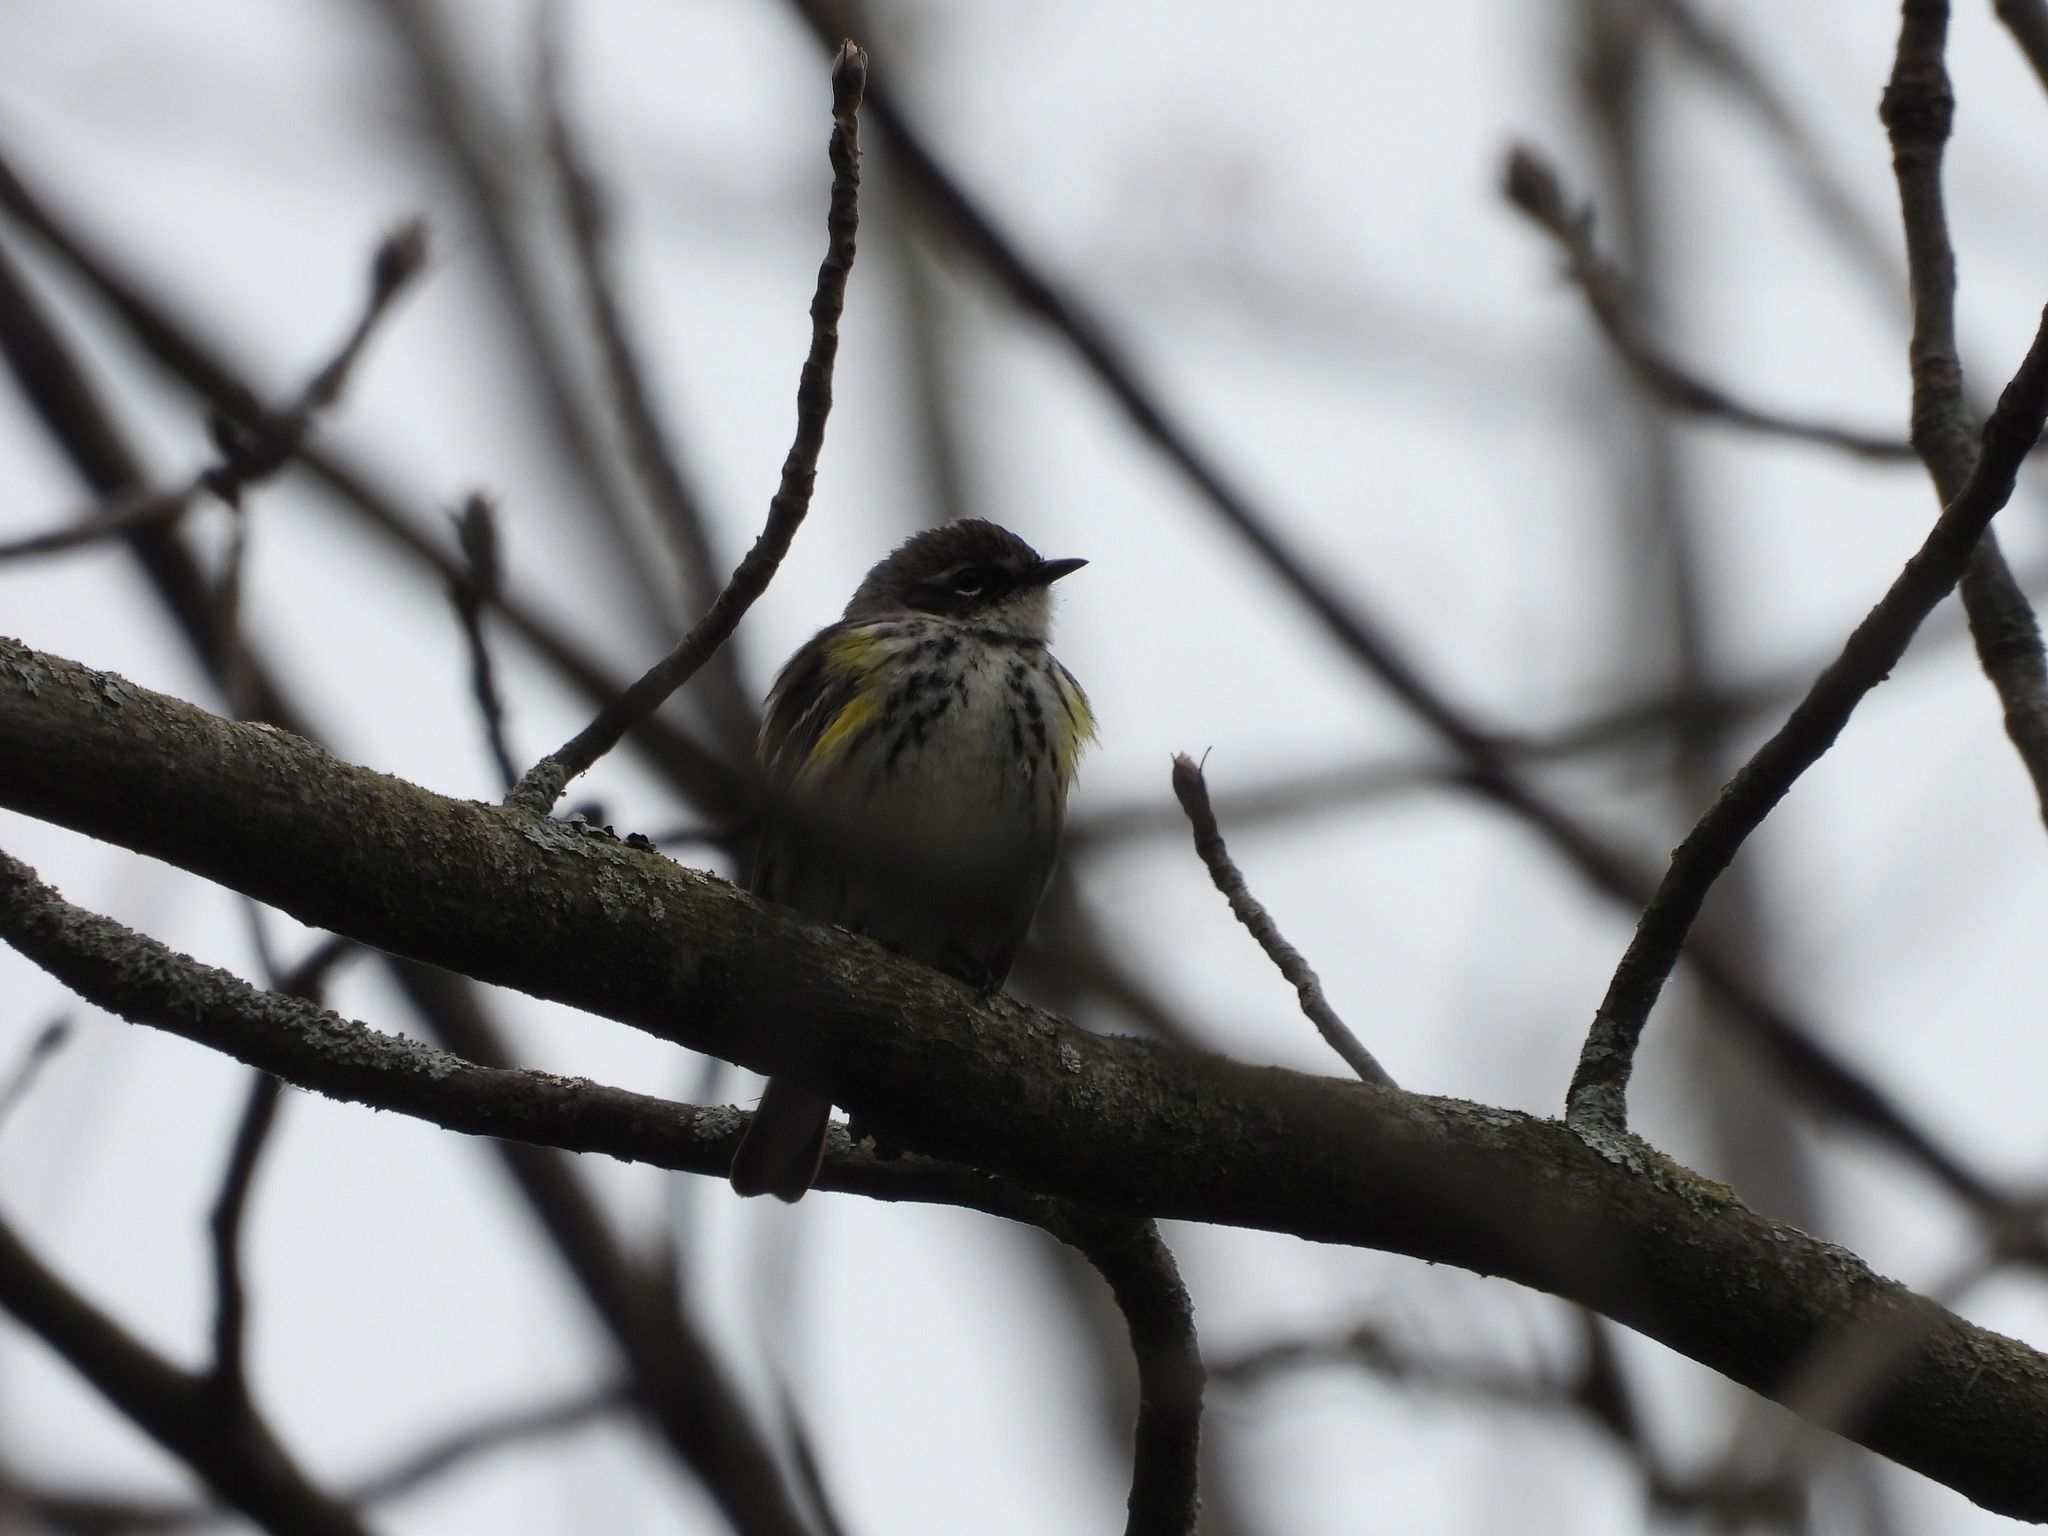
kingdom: Animalia
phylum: Chordata
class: Aves
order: Passeriformes
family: Parulidae
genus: Setophaga
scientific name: Setophaga coronata
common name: Myrtle warbler
